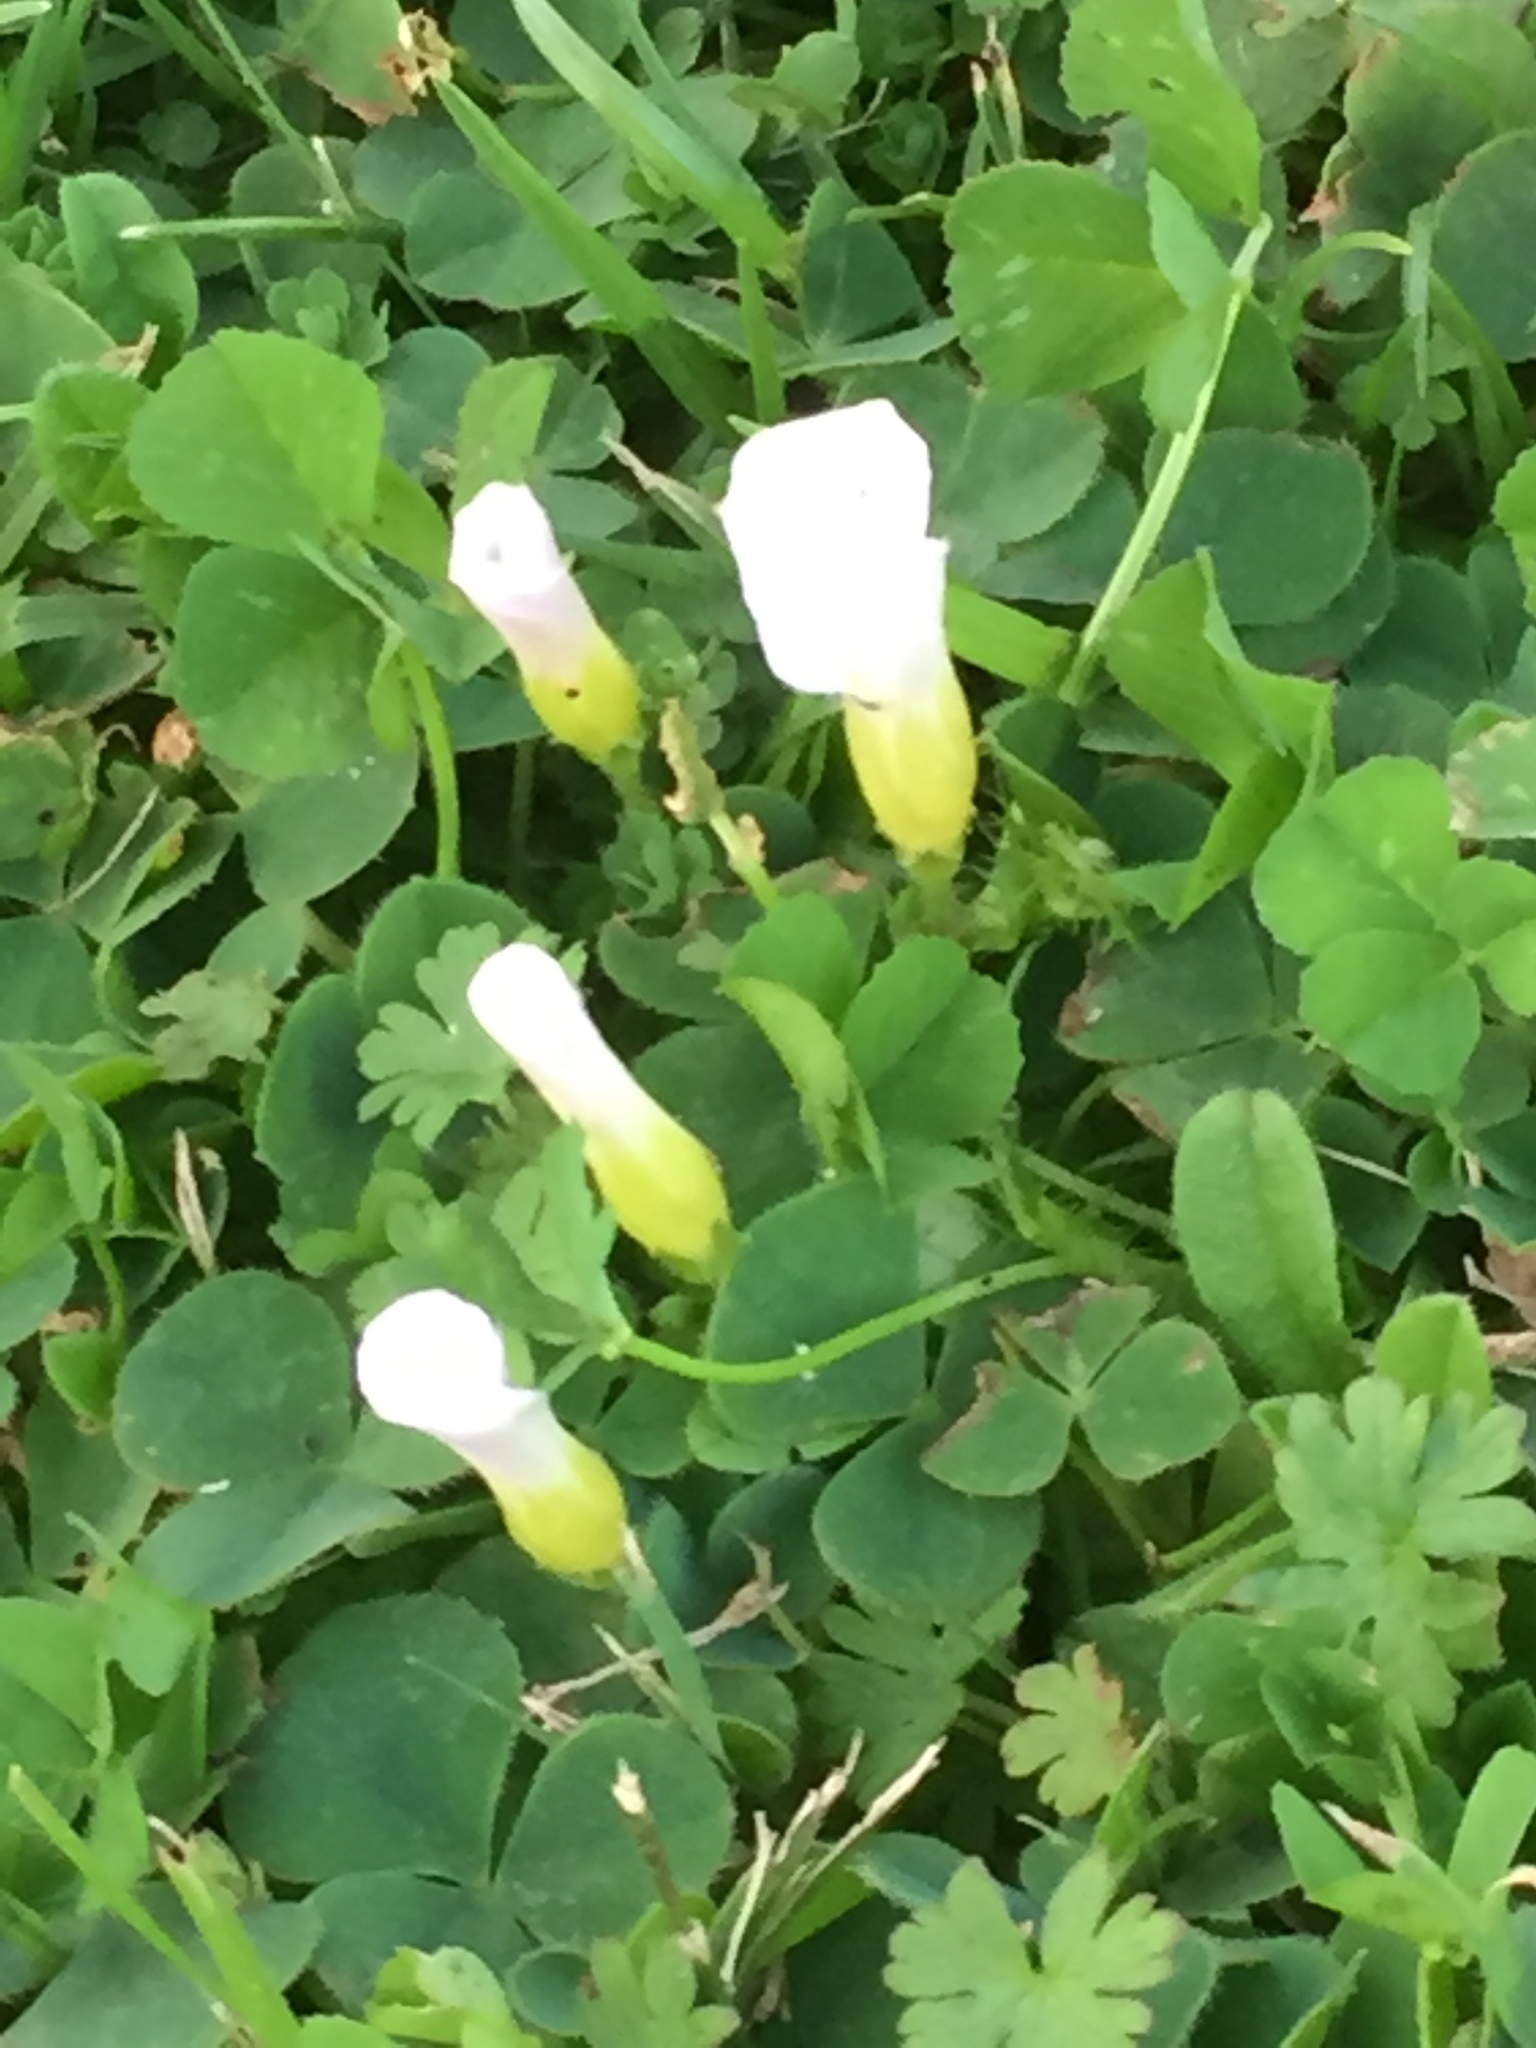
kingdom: Plantae
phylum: Tracheophyta
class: Magnoliopsida
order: Oxalidales
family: Oxalidaceae
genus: Oxalis
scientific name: Oxalis purpurea
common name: Purple woodsorrel
